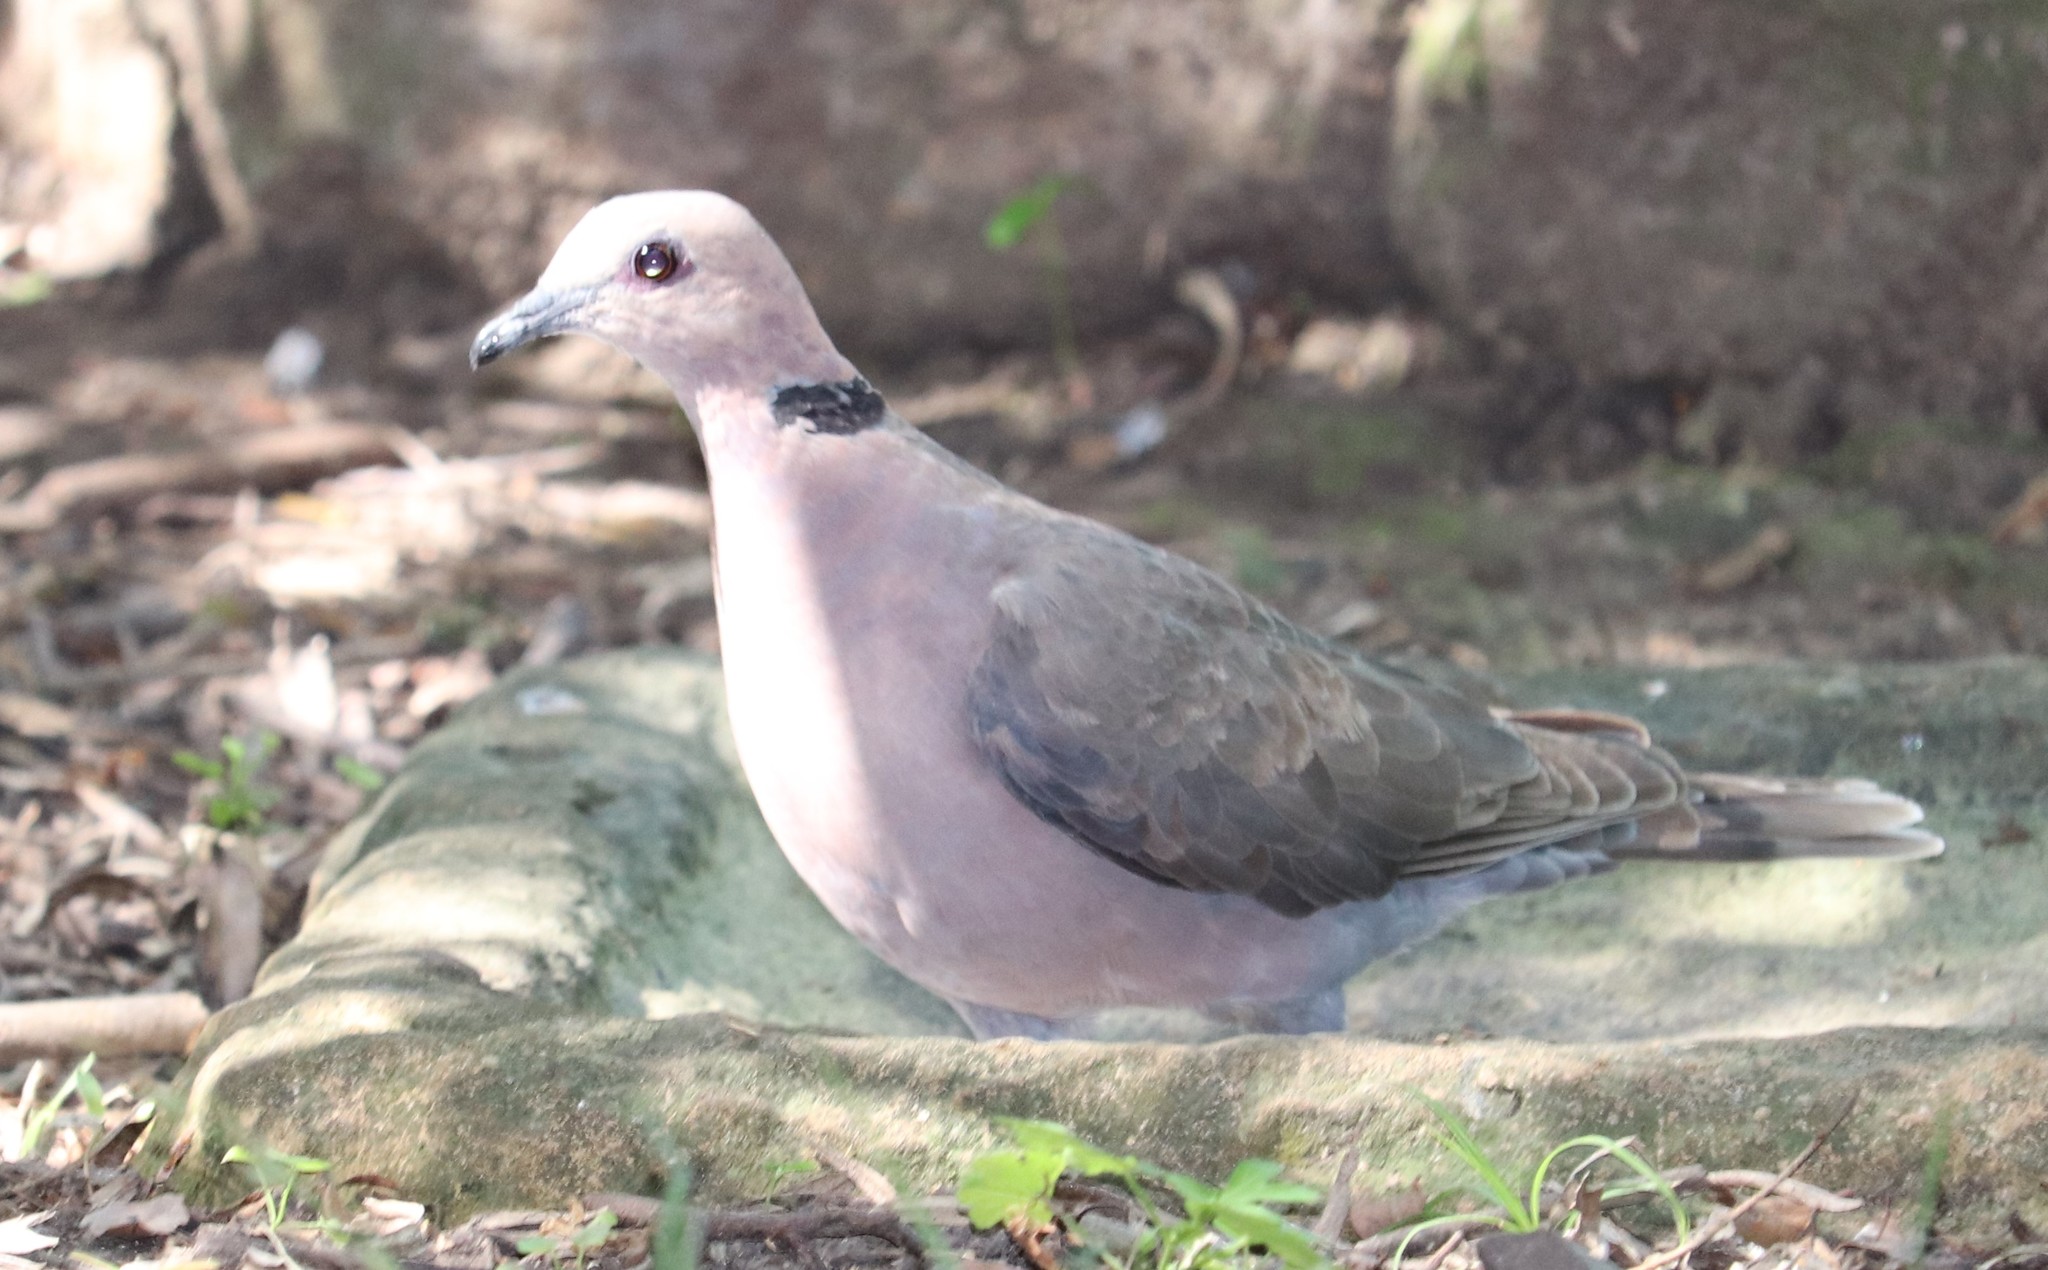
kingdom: Animalia
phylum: Chordata
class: Aves
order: Columbiformes
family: Columbidae
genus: Streptopelia
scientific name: Streptopelia semitorquata
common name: Red-eyed dove
